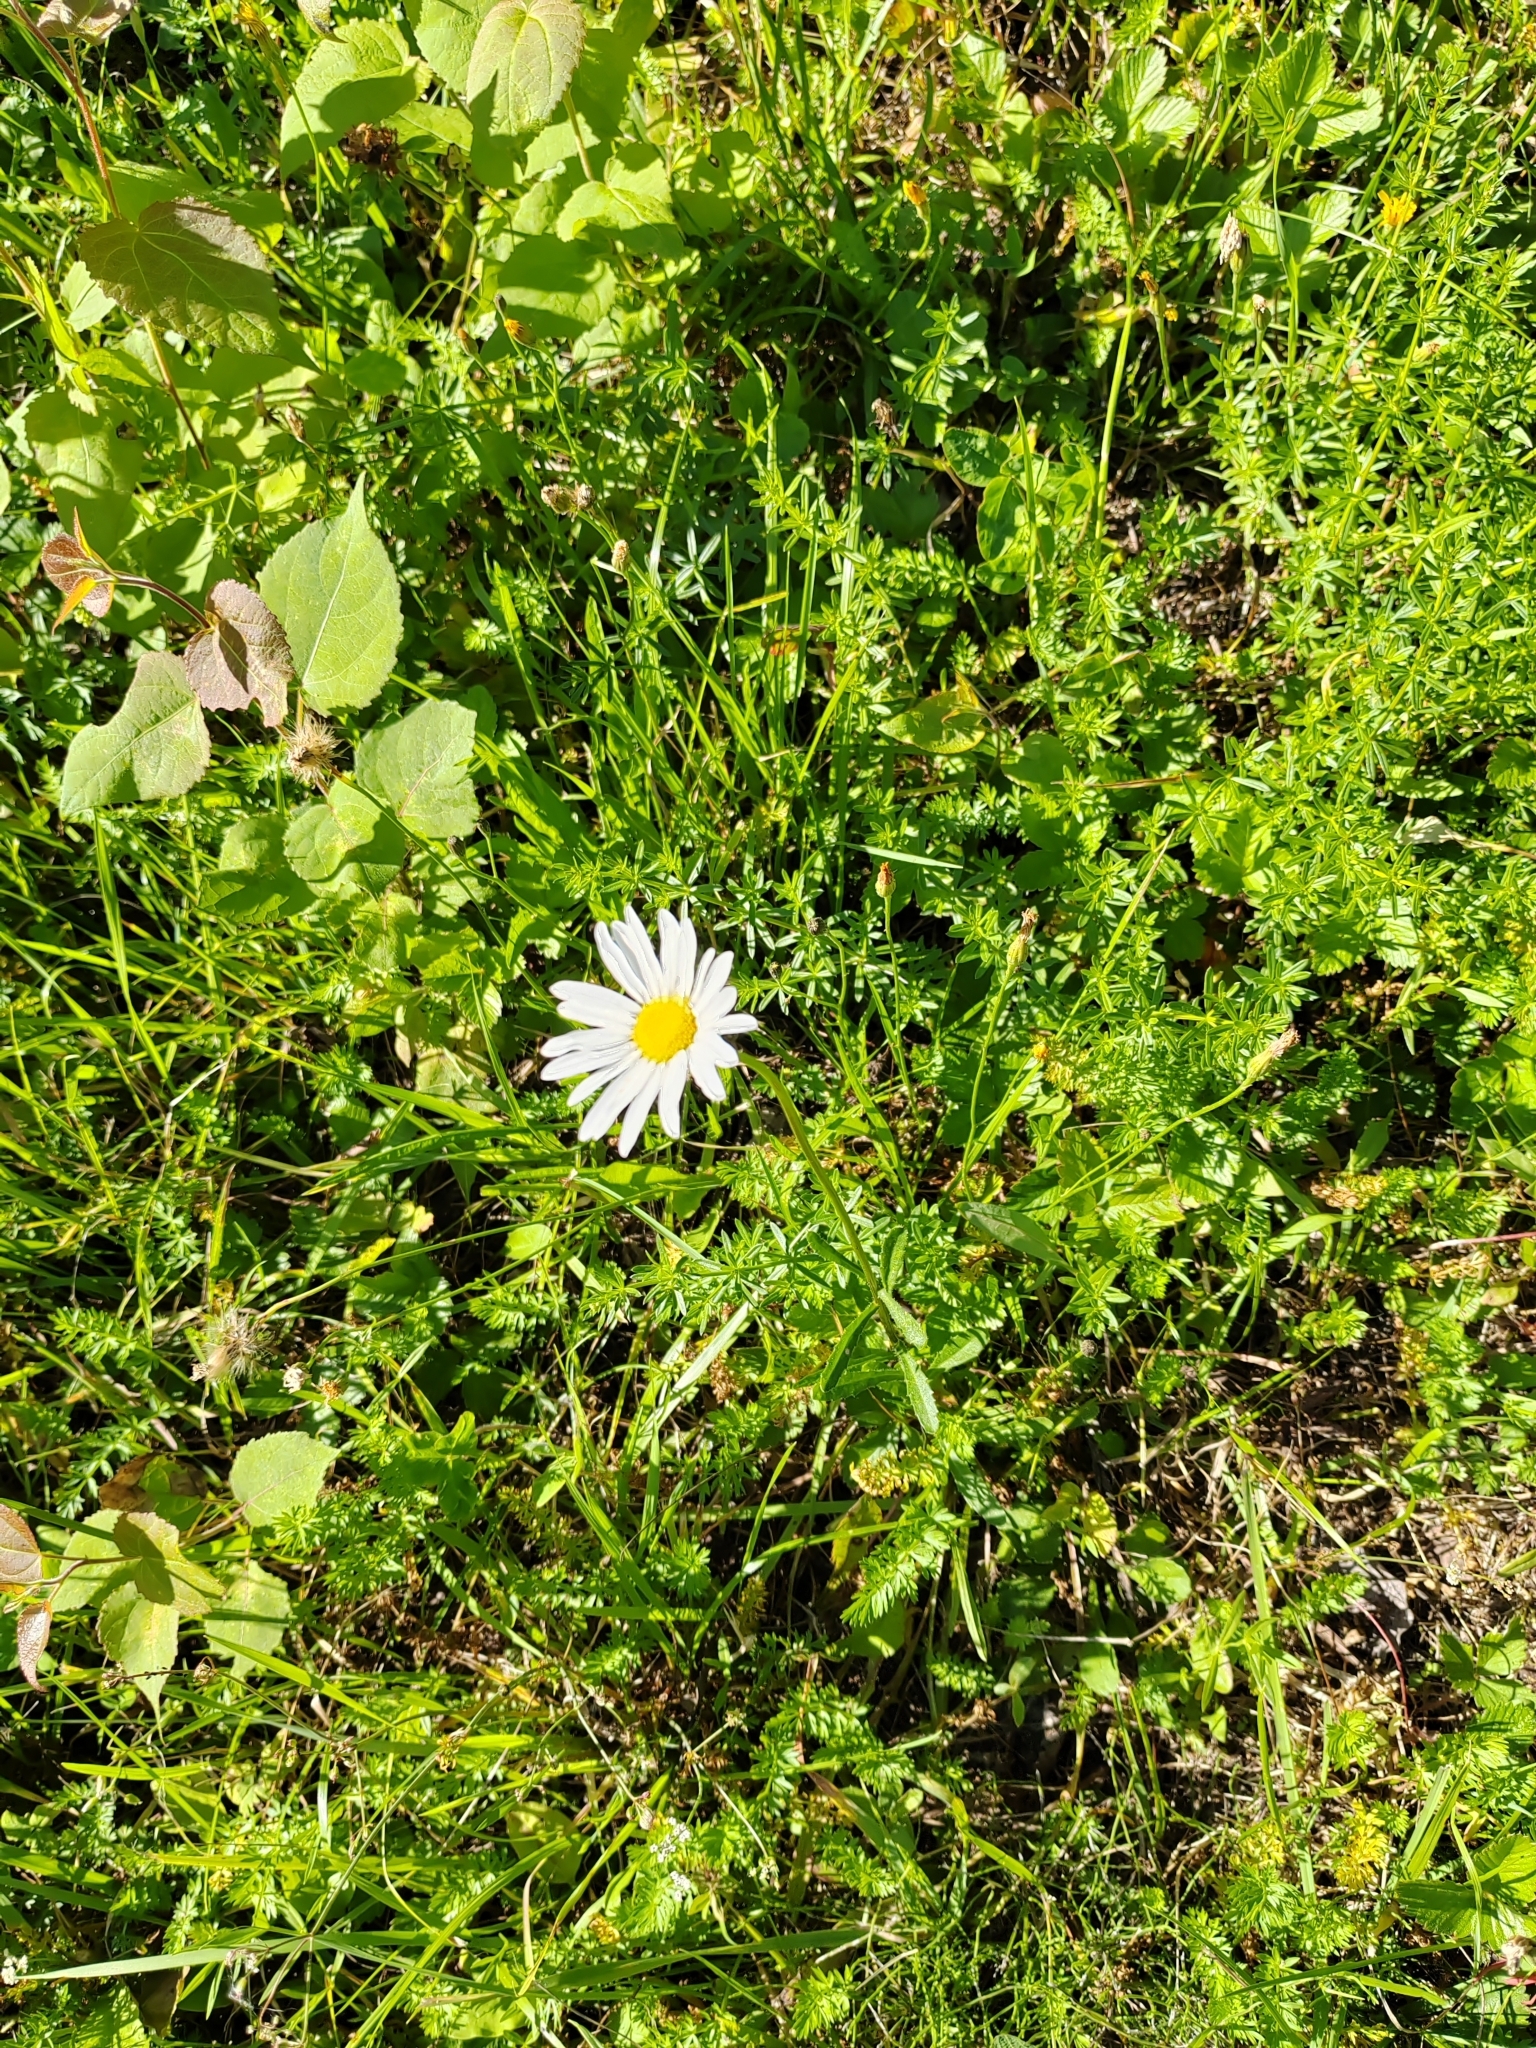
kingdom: Plantae
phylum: Tracheophyta
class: Magnoliopsida
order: Asterales
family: Asteraceae
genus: Leucanthemum
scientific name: Leucanthemum ircutianum
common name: Daisy
